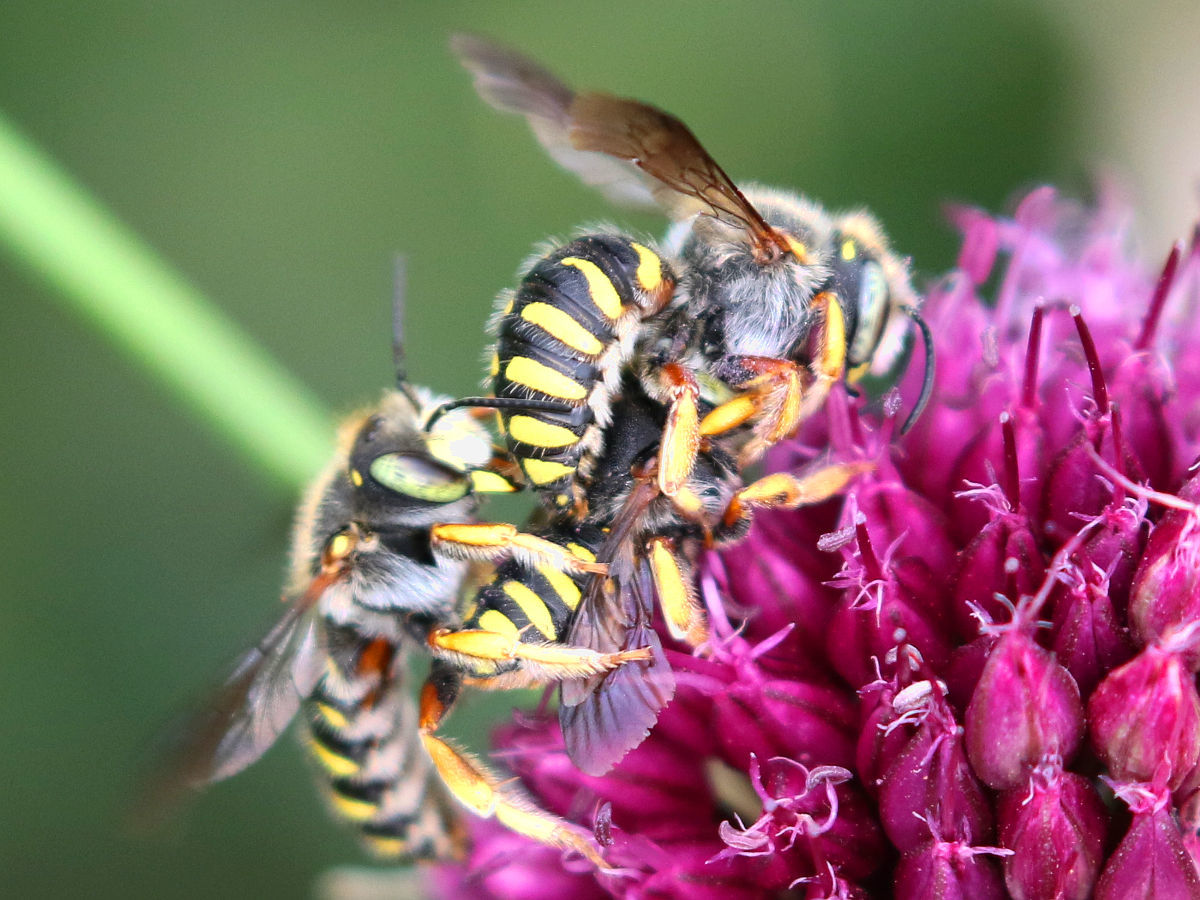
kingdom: Animalia
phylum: Arthropoda
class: Insecta
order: Hymenoptera
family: Megachilidae
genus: Anthidium
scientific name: Anthidium oblongatum
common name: Oblong wool carder bee
